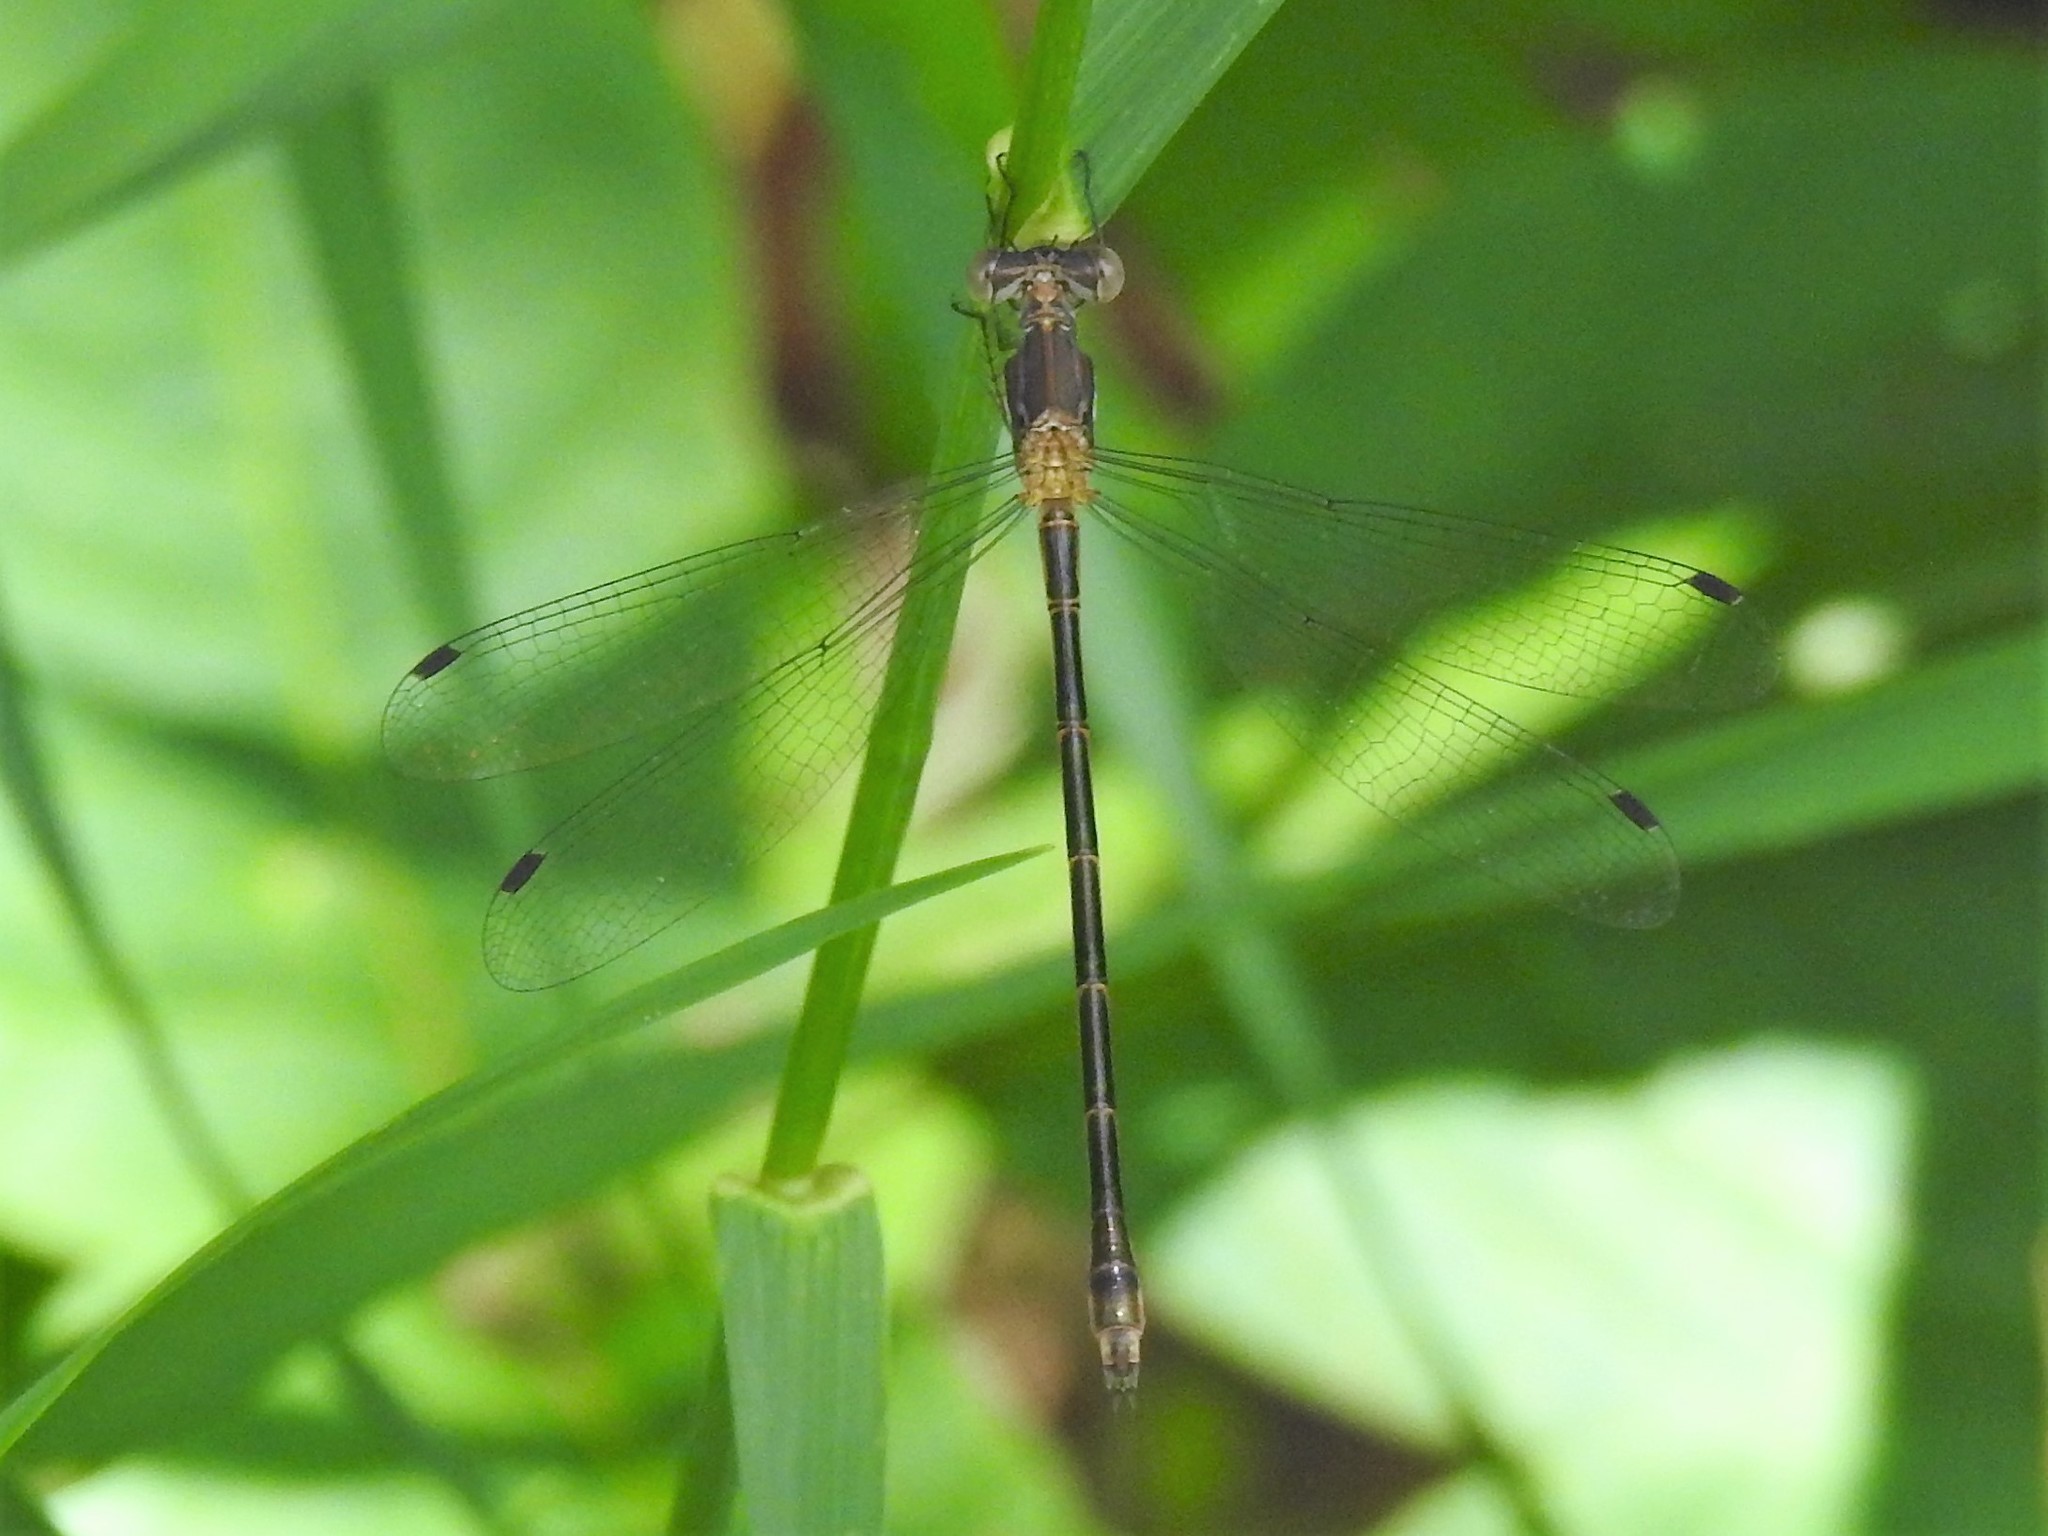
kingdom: Animalia
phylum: Arthropoda
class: Insecta
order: Odonata
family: Lestidae
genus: Lestes
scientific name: Lestes forcipatus
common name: Sweetflag spreadwing
